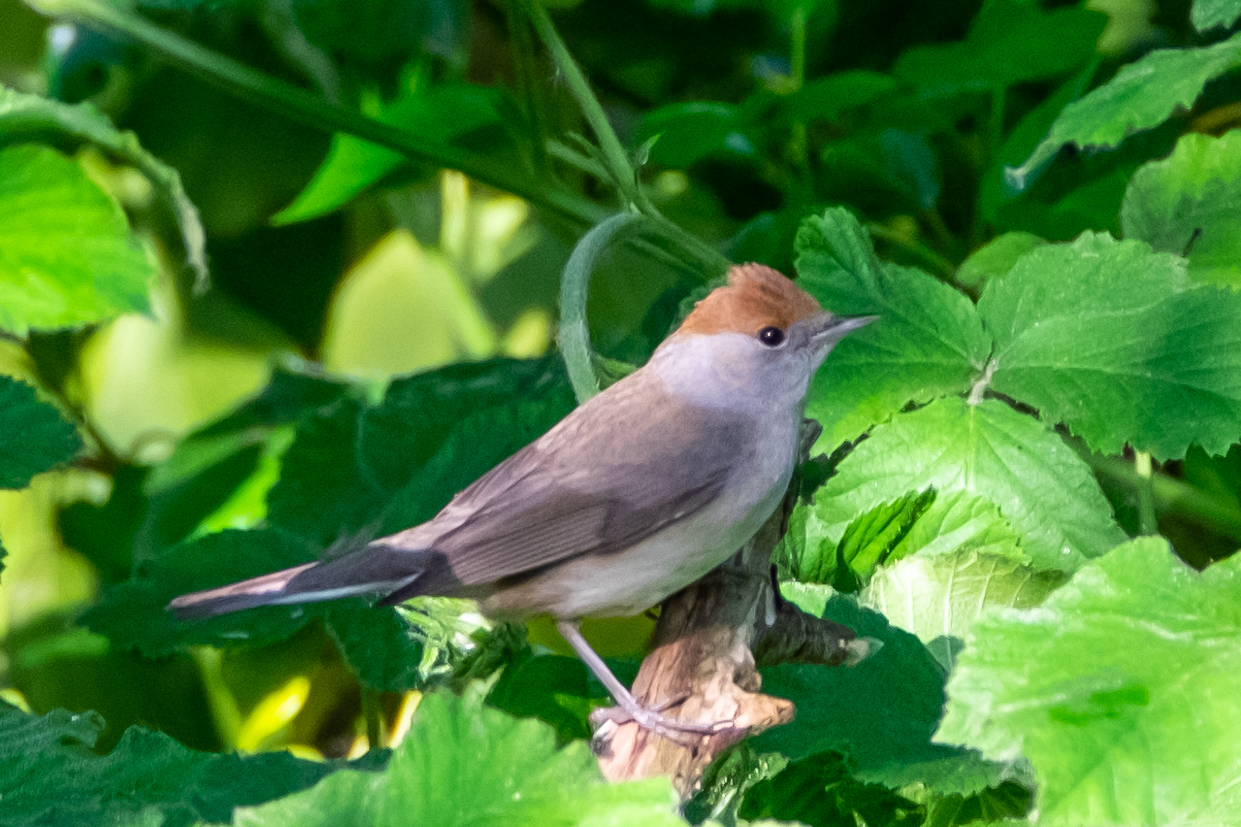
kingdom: Animalia
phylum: Chordata
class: Aves
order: Passeriformes
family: Sylviidae
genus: Sylvia
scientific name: Sylvia atricapilla
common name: Eurasian blackcap
